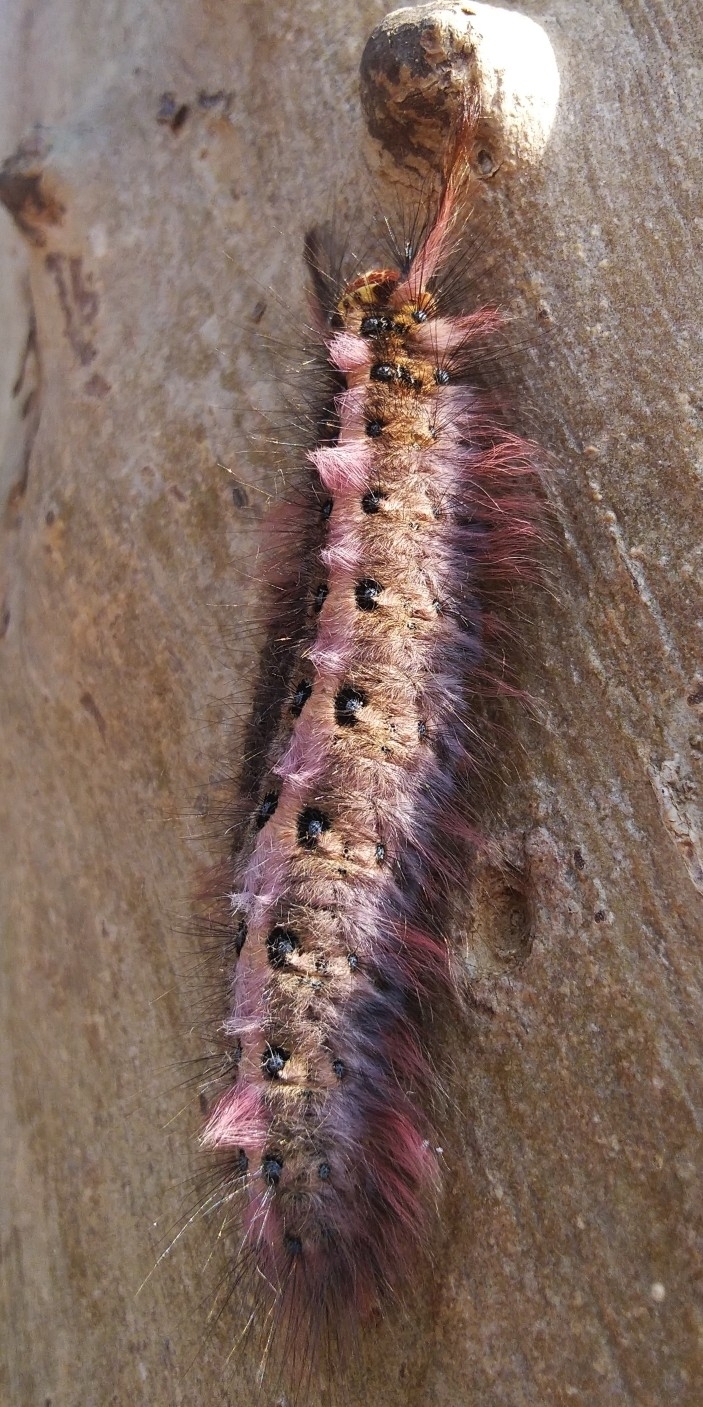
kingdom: Animalia
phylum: Arthropoda
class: Insecta
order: Lepidoptera
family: Lasiocampidae
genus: Trabala
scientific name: Trabala vishnou
